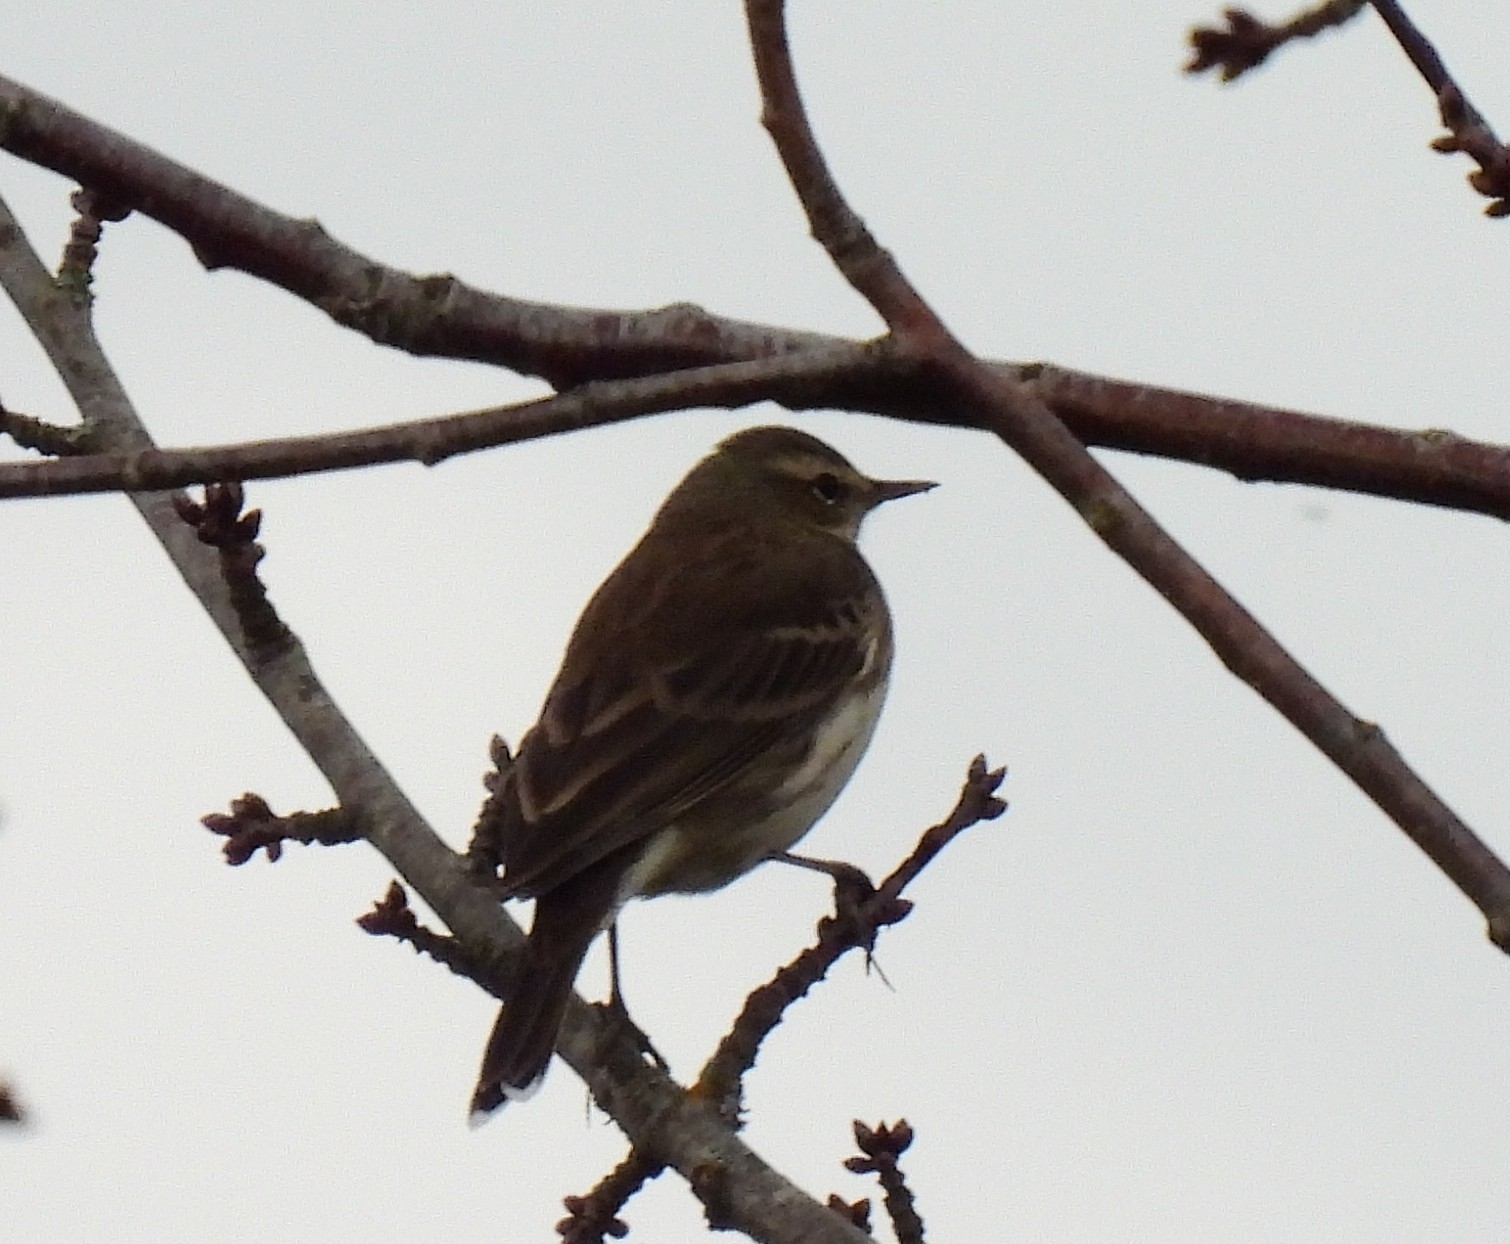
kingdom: Animalia
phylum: Chordata
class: Aves
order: Passeriformes
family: Motacillidae
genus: Anthus
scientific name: Anthus spinoletta
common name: Water pipit
